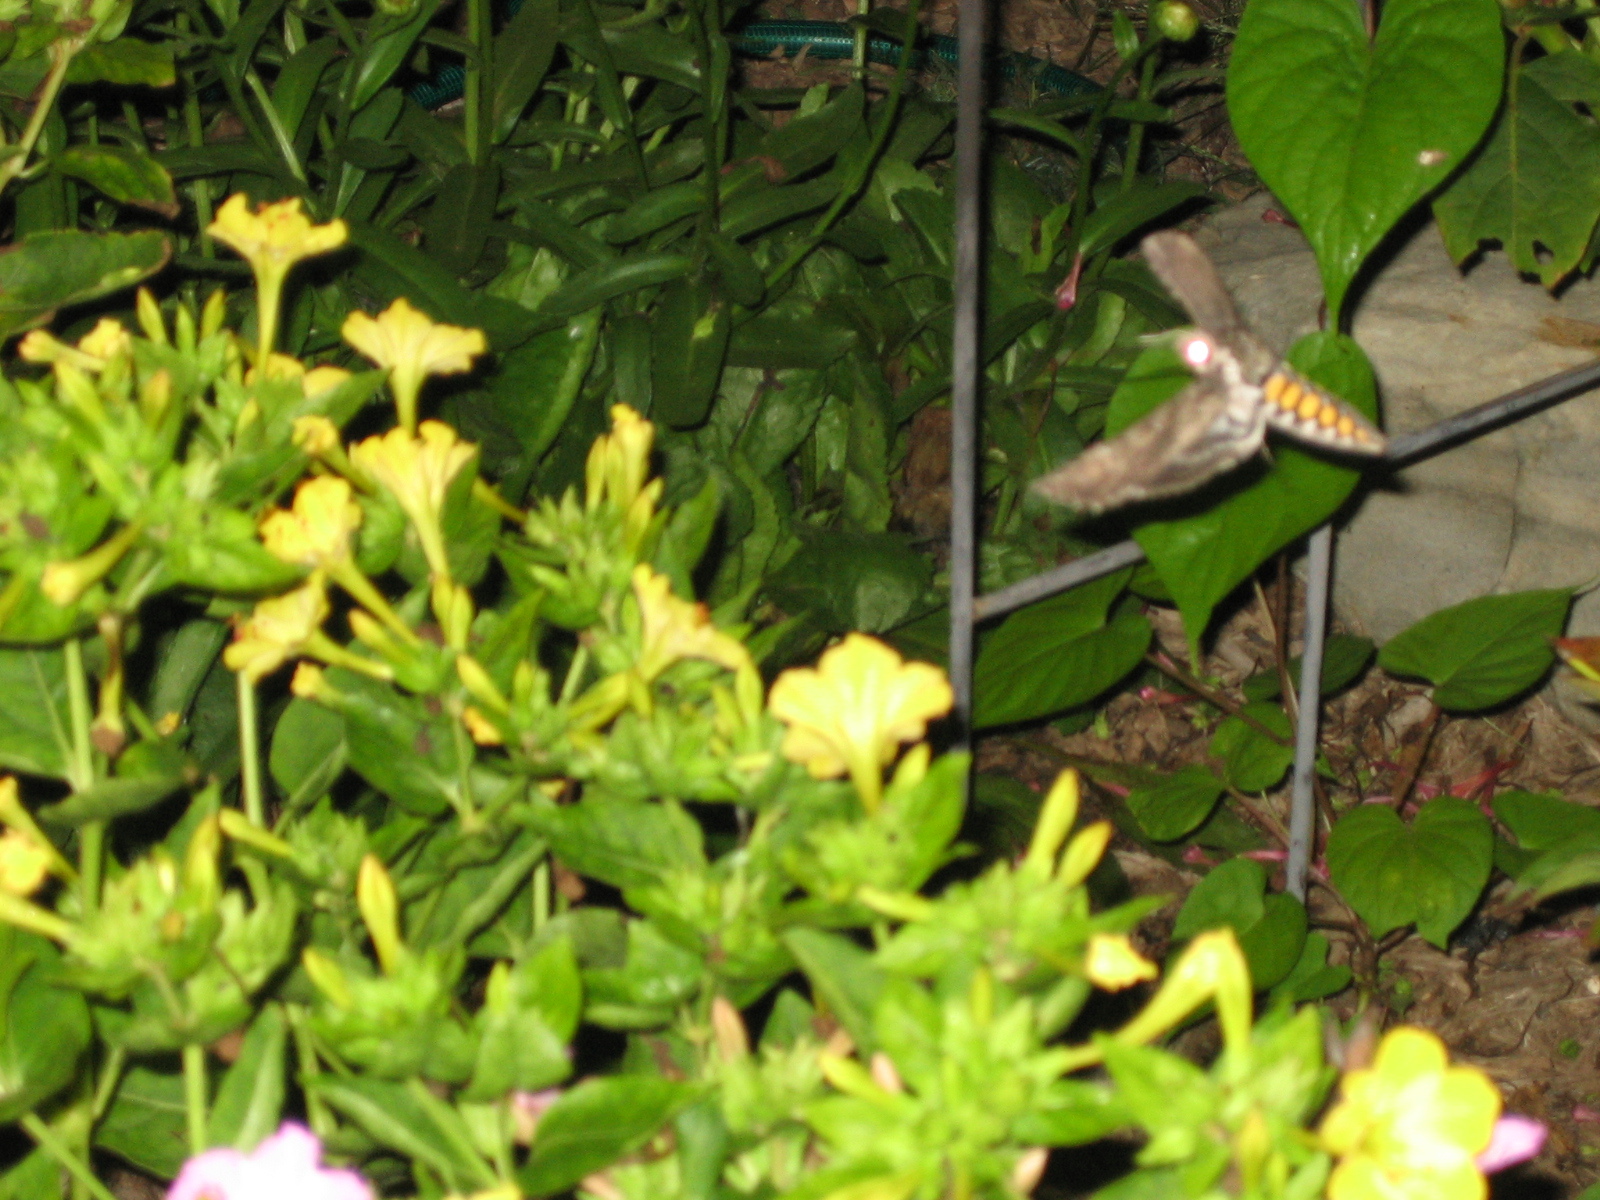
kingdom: Animalia
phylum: Arthropoda
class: Insecta
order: Lepidoptera
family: Sphingidae
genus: Manduca
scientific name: Manduca sexta
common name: Carolina sphinx
